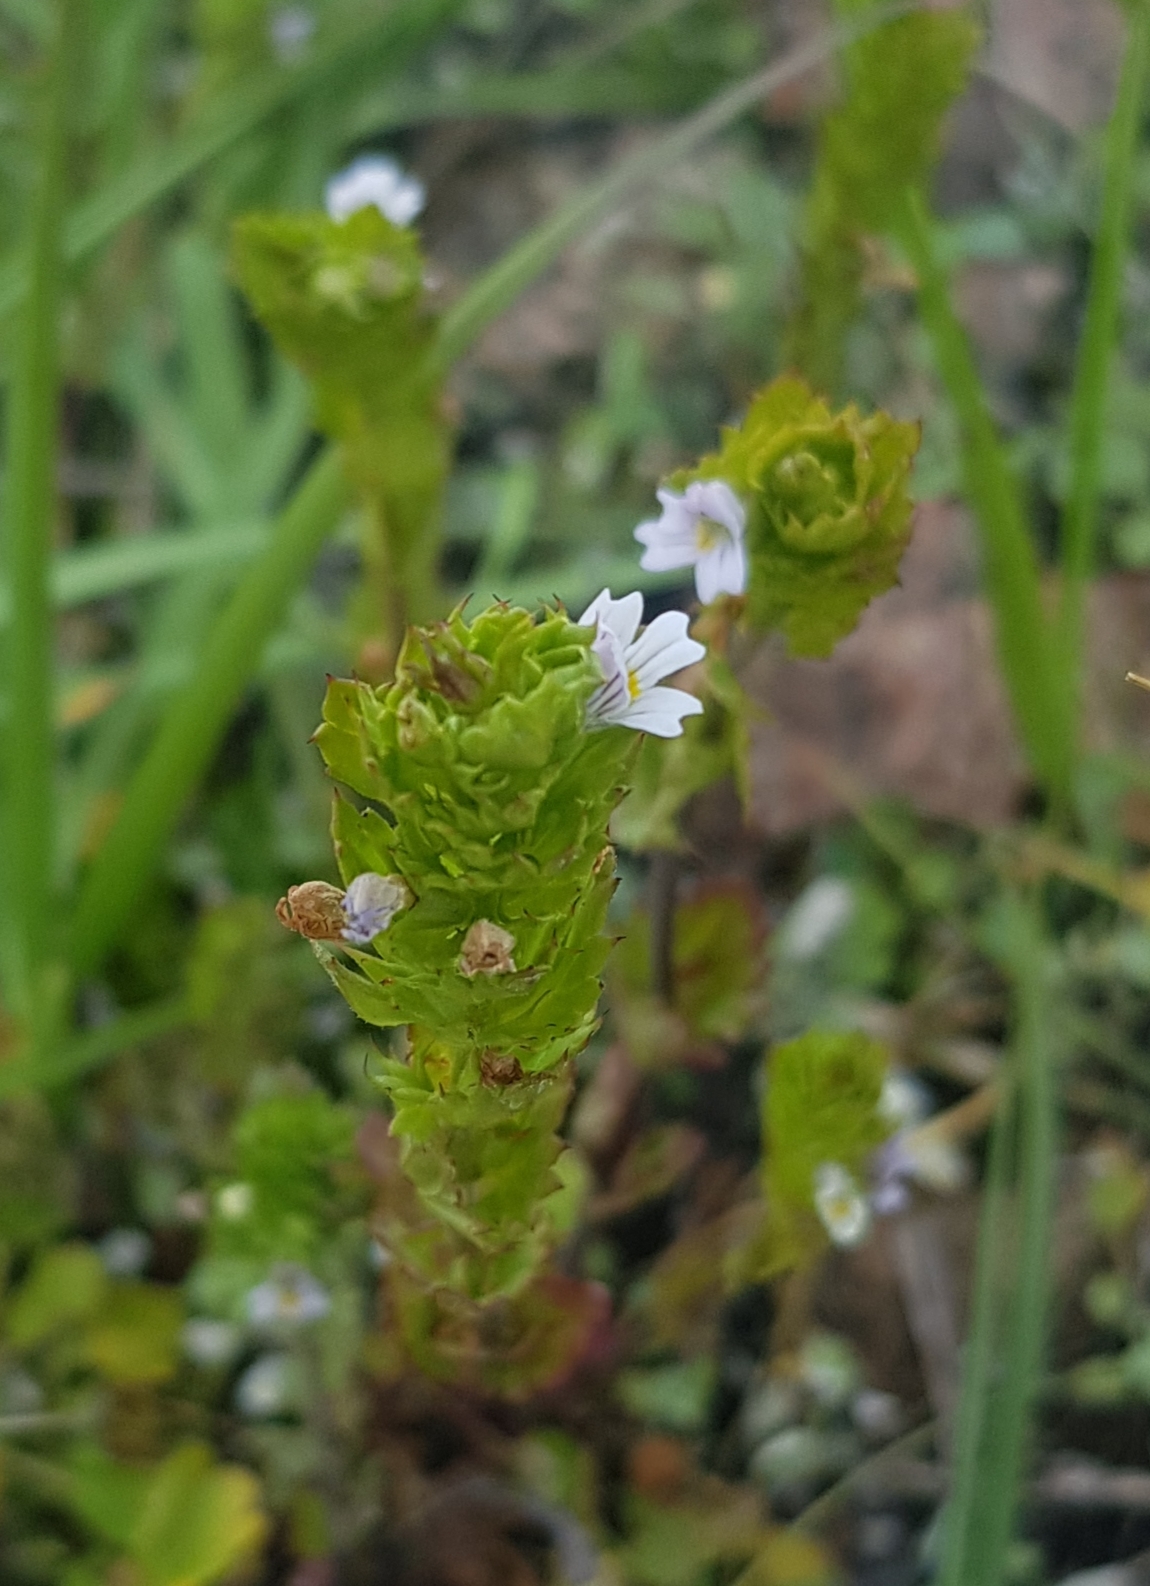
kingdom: Plantae
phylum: Tracheophyta
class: Magnoliopsida
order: Lamiales
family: Orobanchaceae
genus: Euphrasia
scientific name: Euphrasia pectinata
